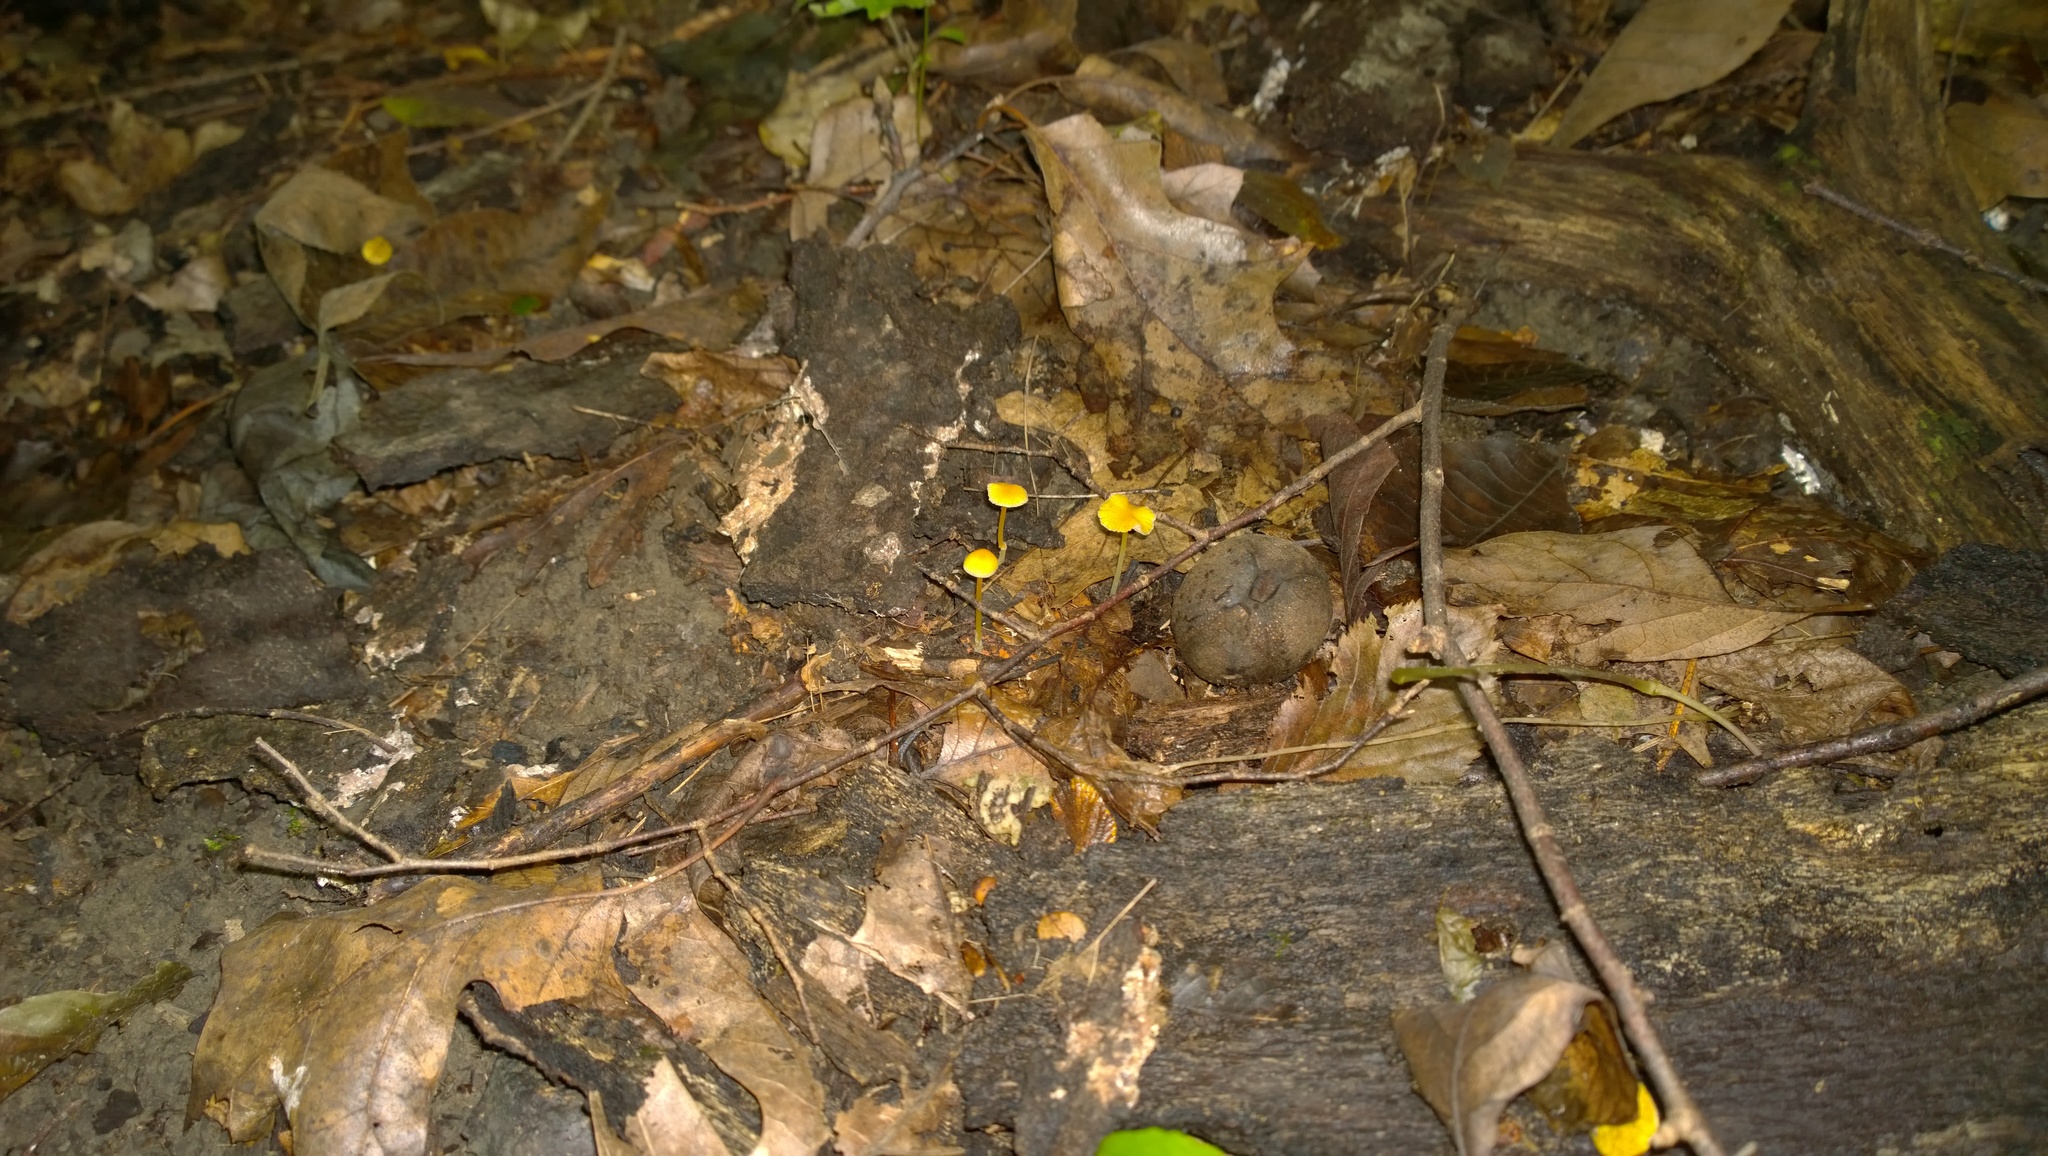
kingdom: Fungi
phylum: Basidiomycota
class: Agaricomycetes
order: Agaricales
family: Mycenaceae
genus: Mycena
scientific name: Mycena crocea
